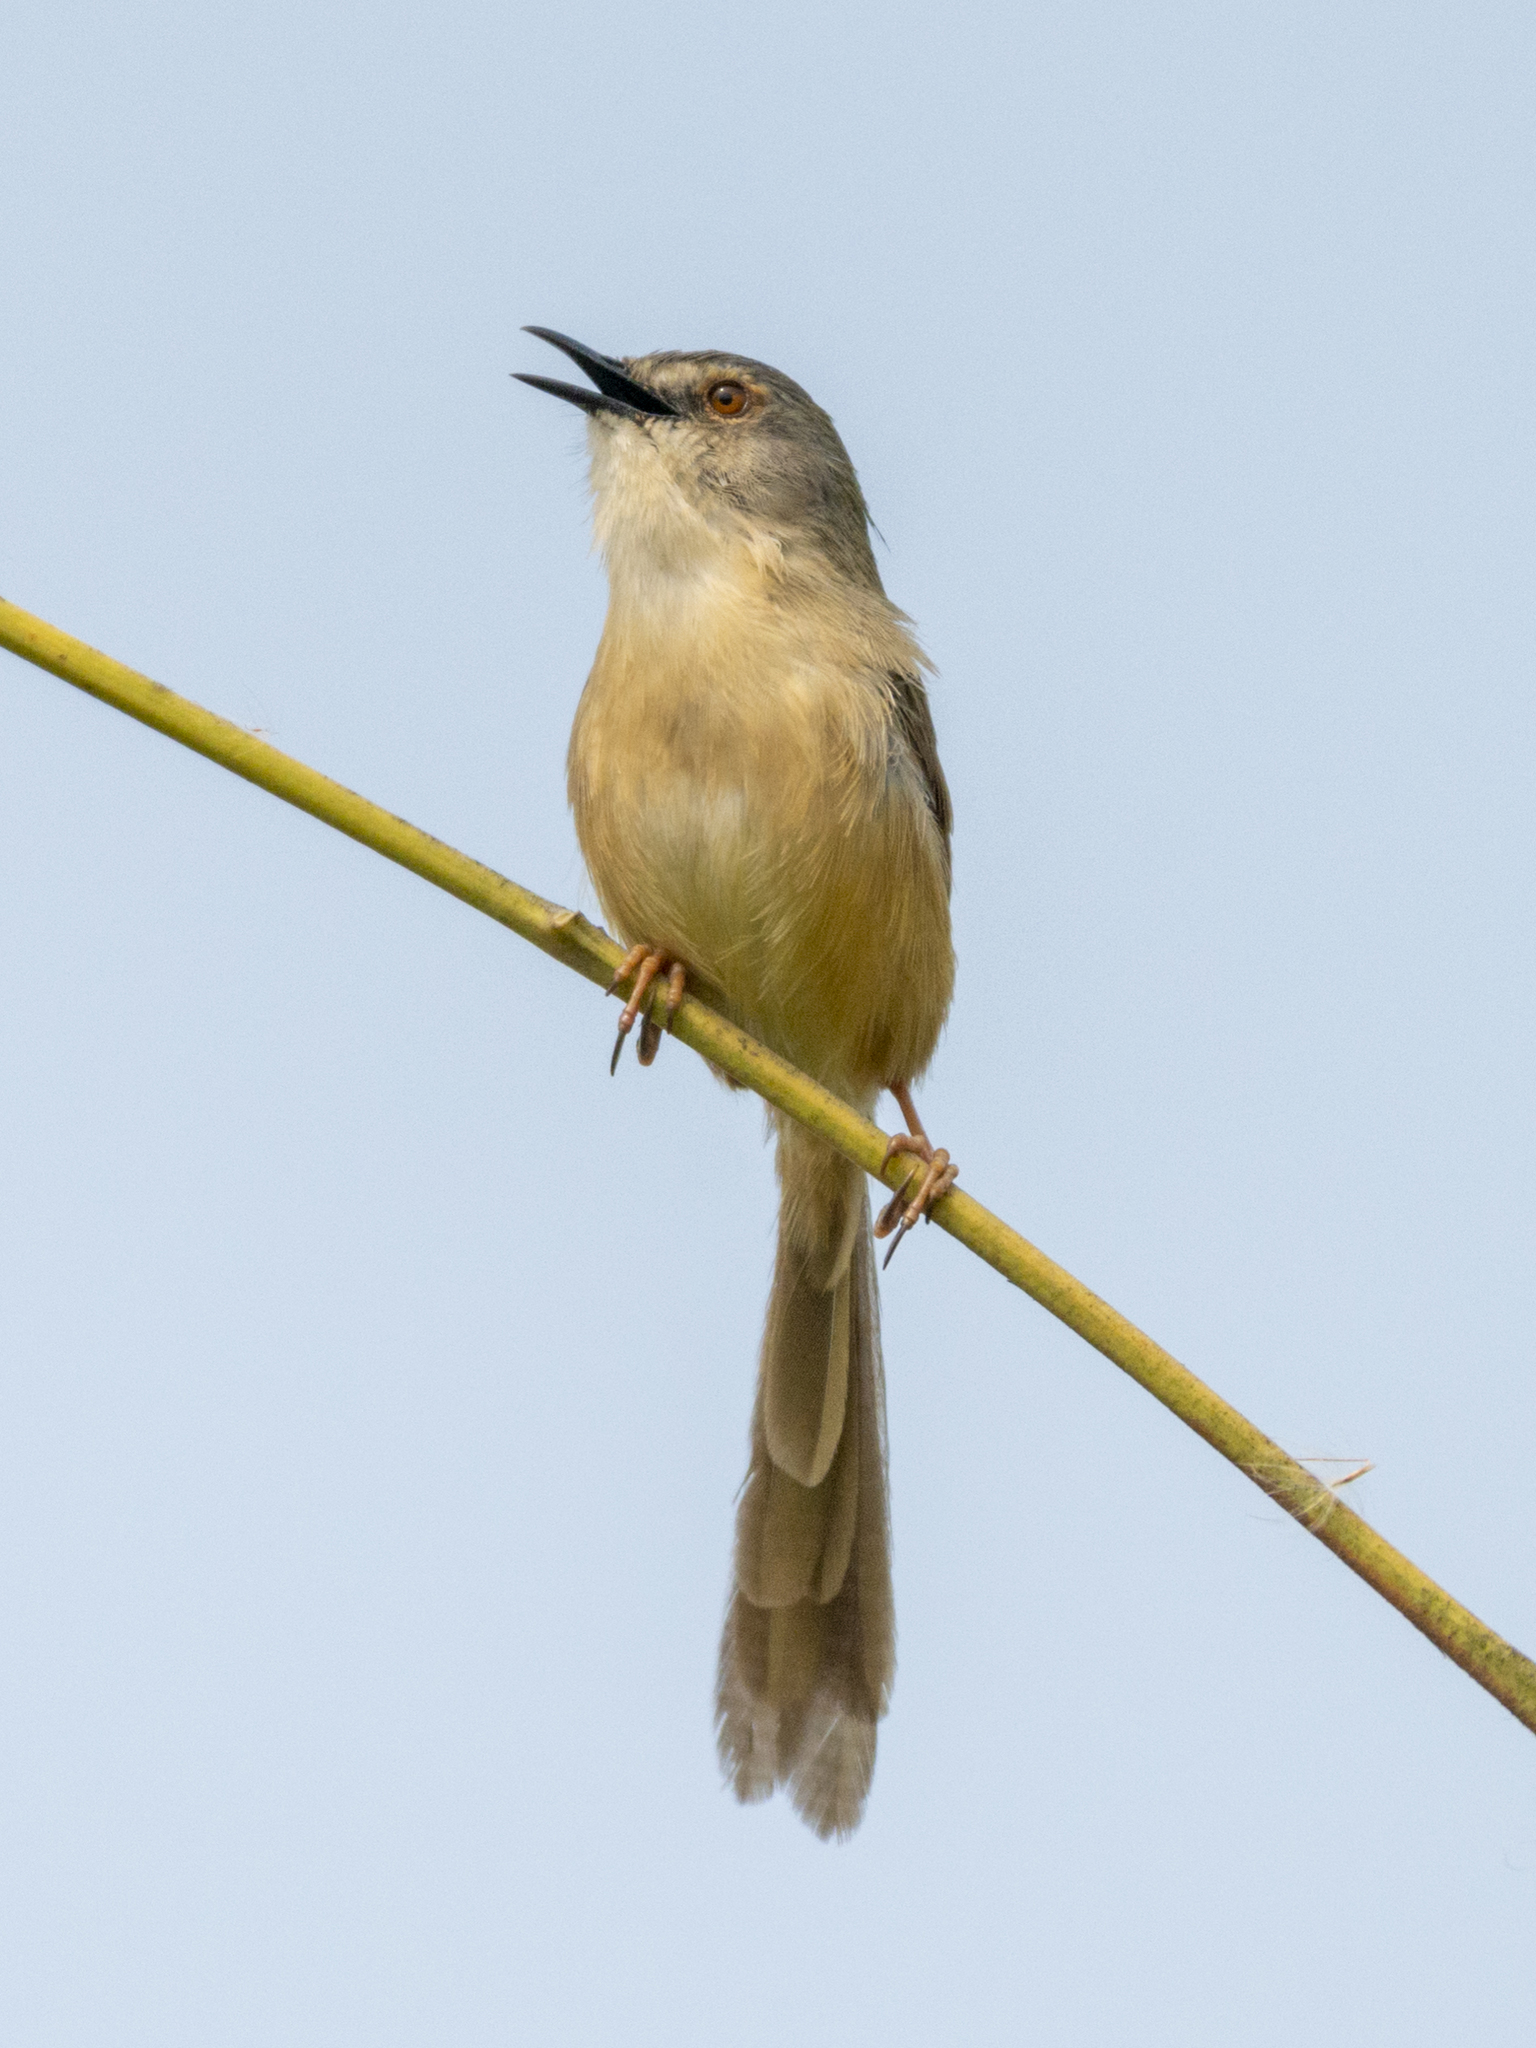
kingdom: Animalia
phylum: Chordata
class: Aves
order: Passeriformes
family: Cisticolidae
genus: Prinia
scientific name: Prinia flaviventris
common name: Yellow-bellied prinia
